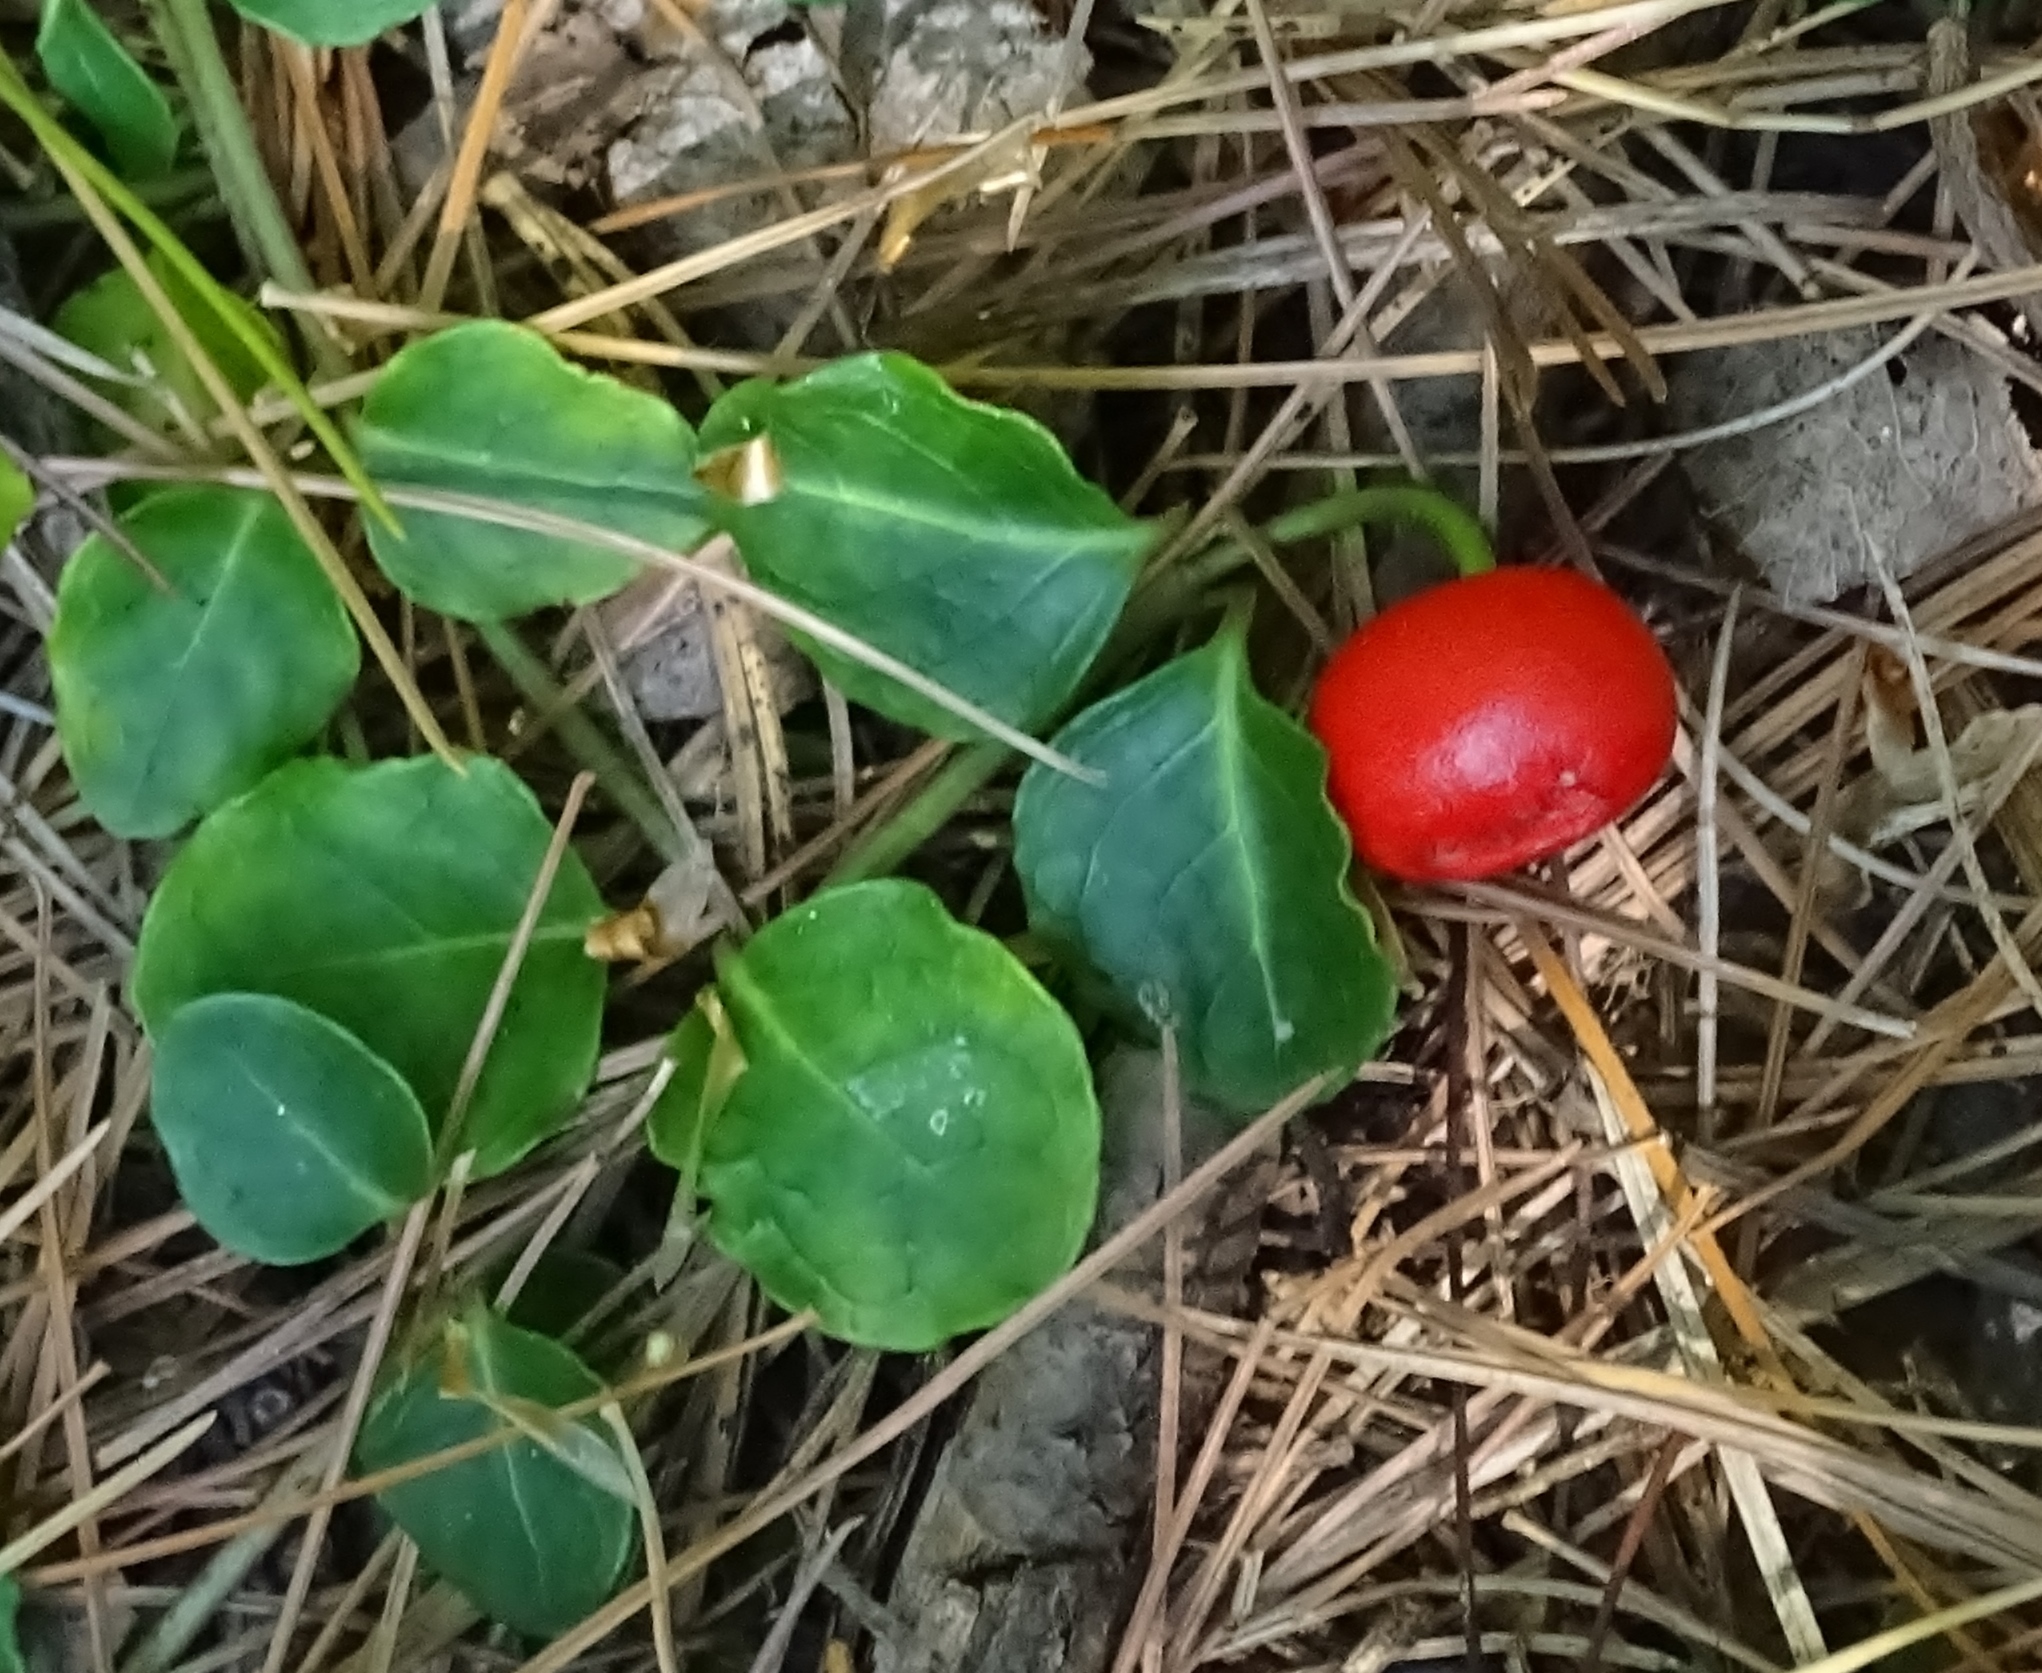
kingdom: Plantae
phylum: Tracheophyta
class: Magnoliopsida
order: Gentianales
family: Rubiaceae
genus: Mitchella
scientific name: Mitchella repens
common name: Partridge-berry
